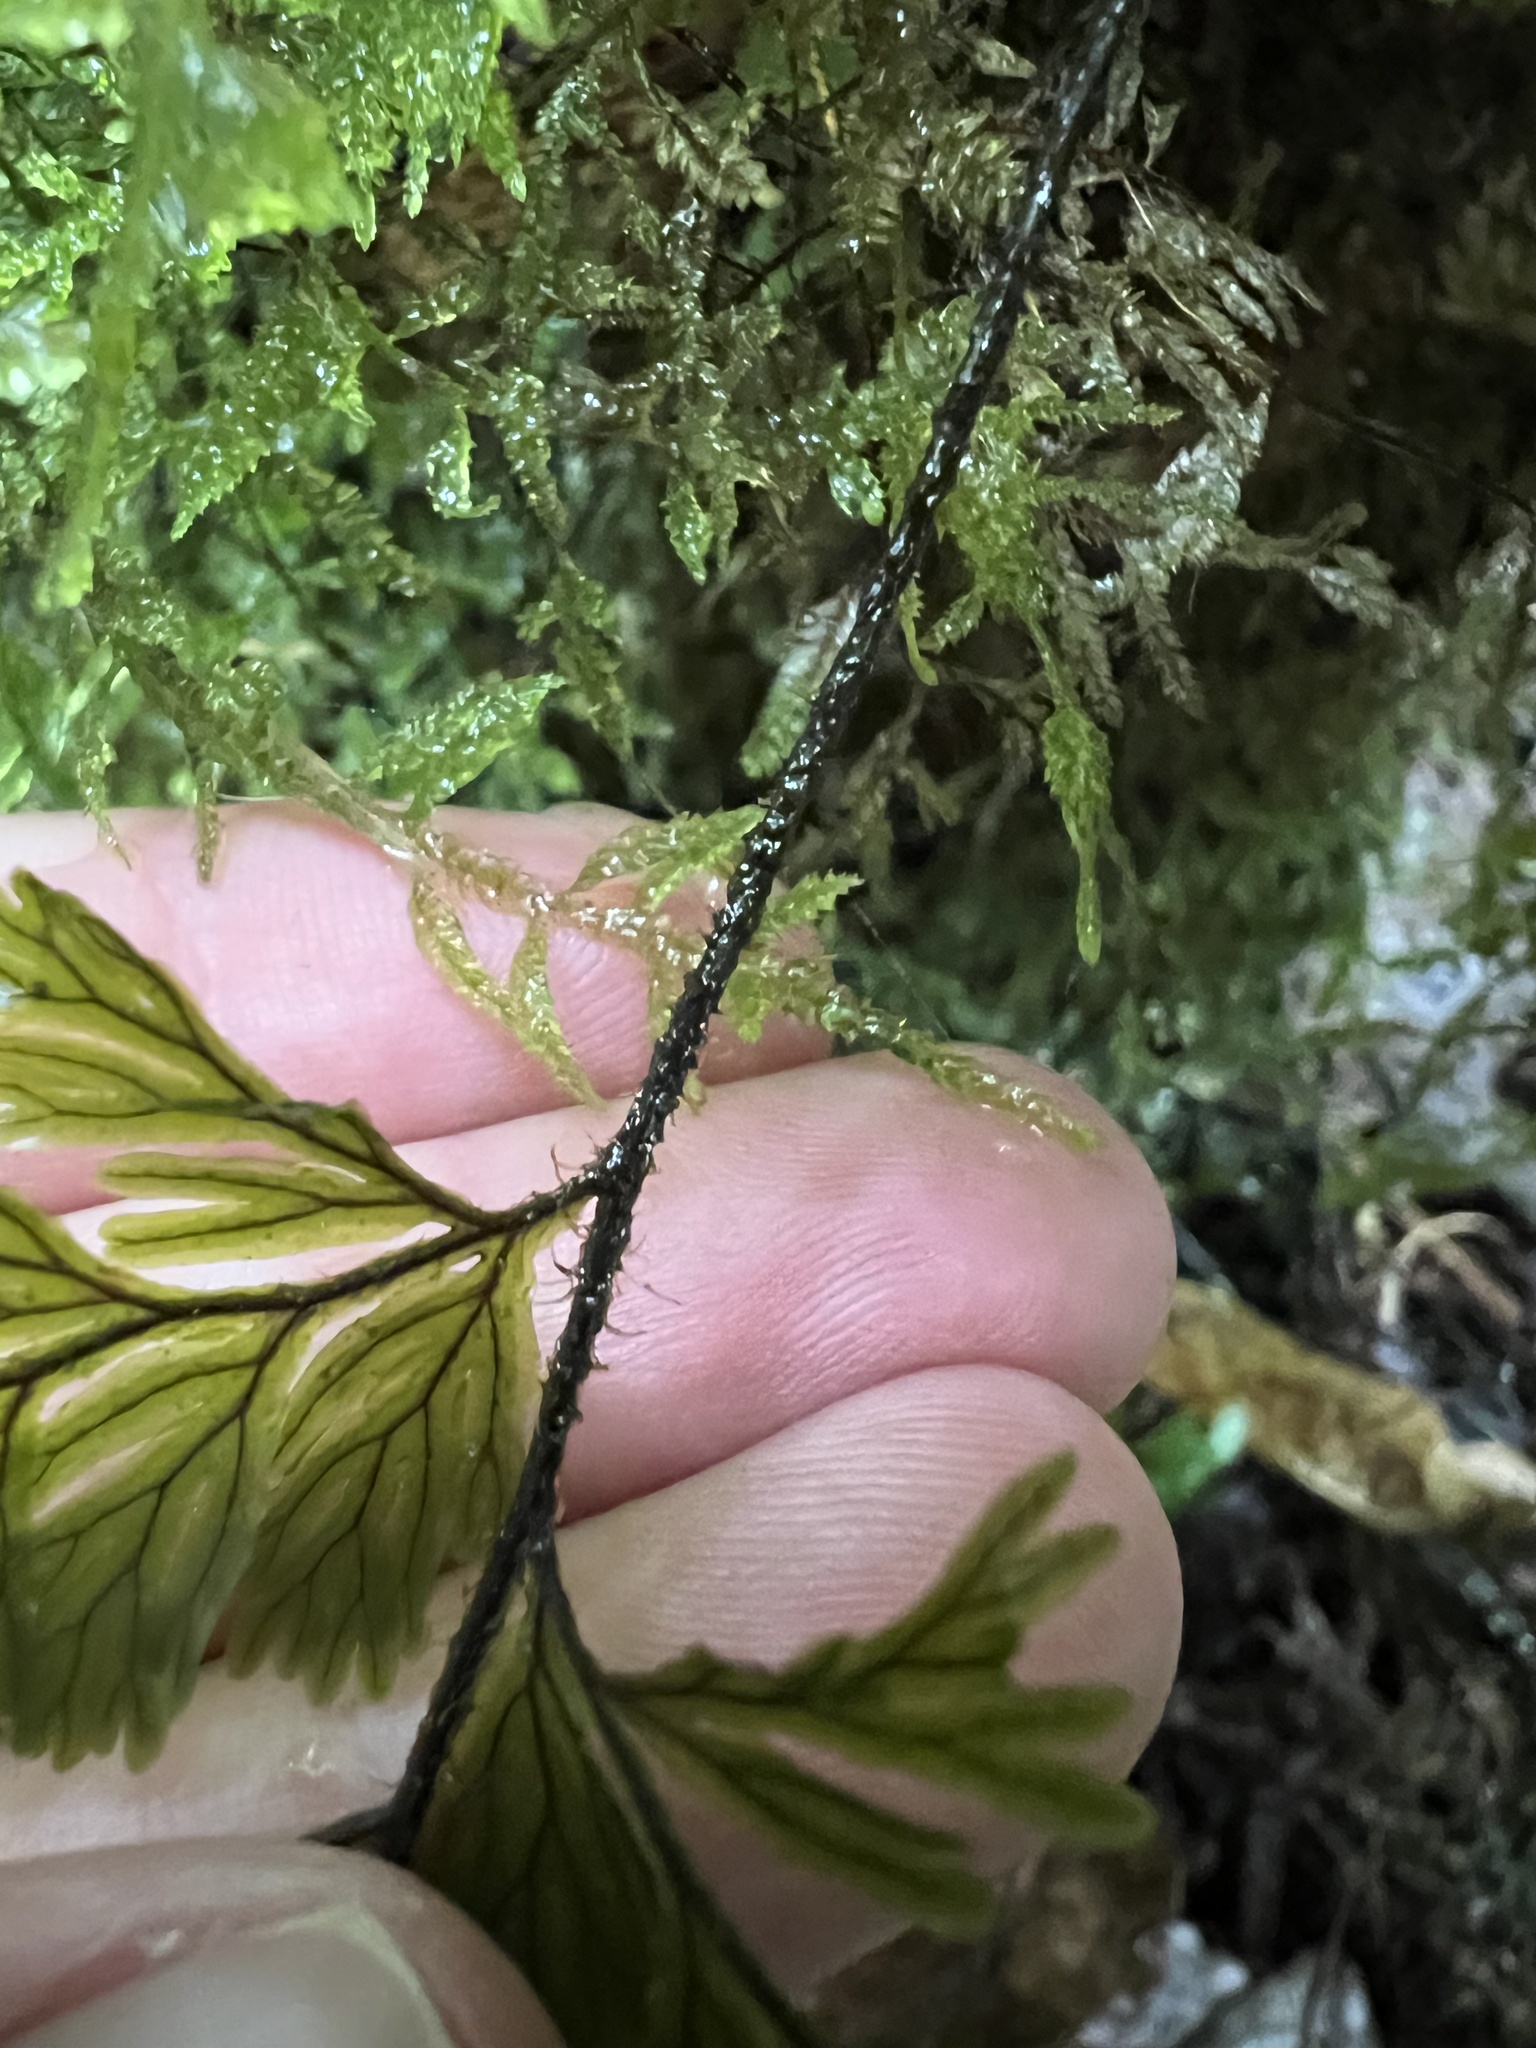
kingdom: Plantae
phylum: Tracheophyta
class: Polypodiopsida
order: Hymenophyllales
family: Hymenophyllaceae
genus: Hymenophyllum
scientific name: Hymenophyllum scabrum
